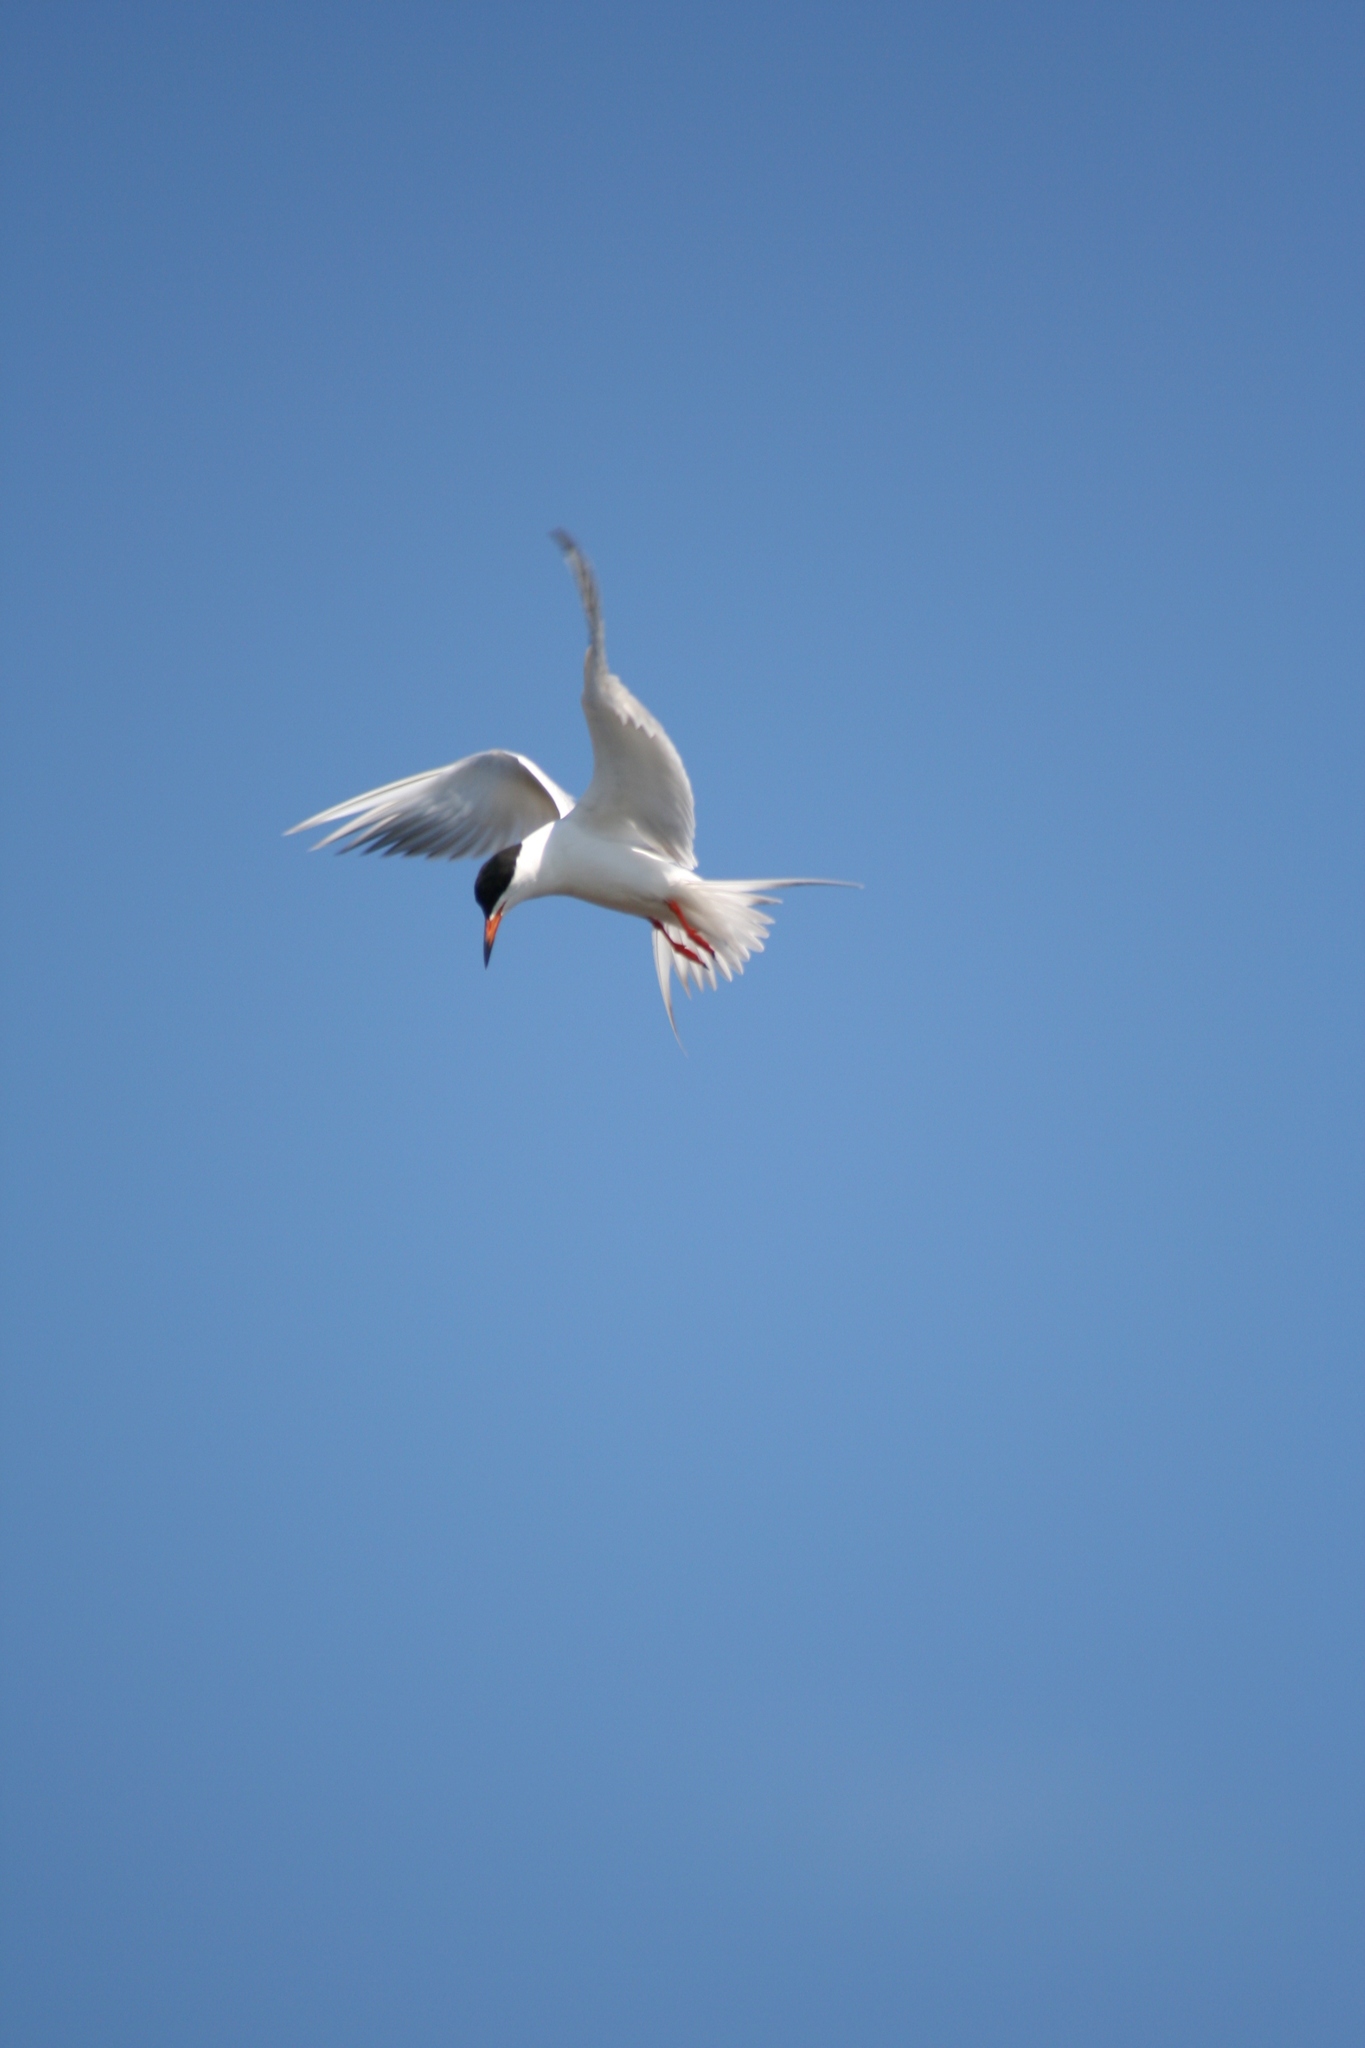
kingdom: Animalia
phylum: Chordata
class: Aves
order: Charadriiformes
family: Laridae
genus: Sterna
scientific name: Sterna hirundo
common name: Common tern
